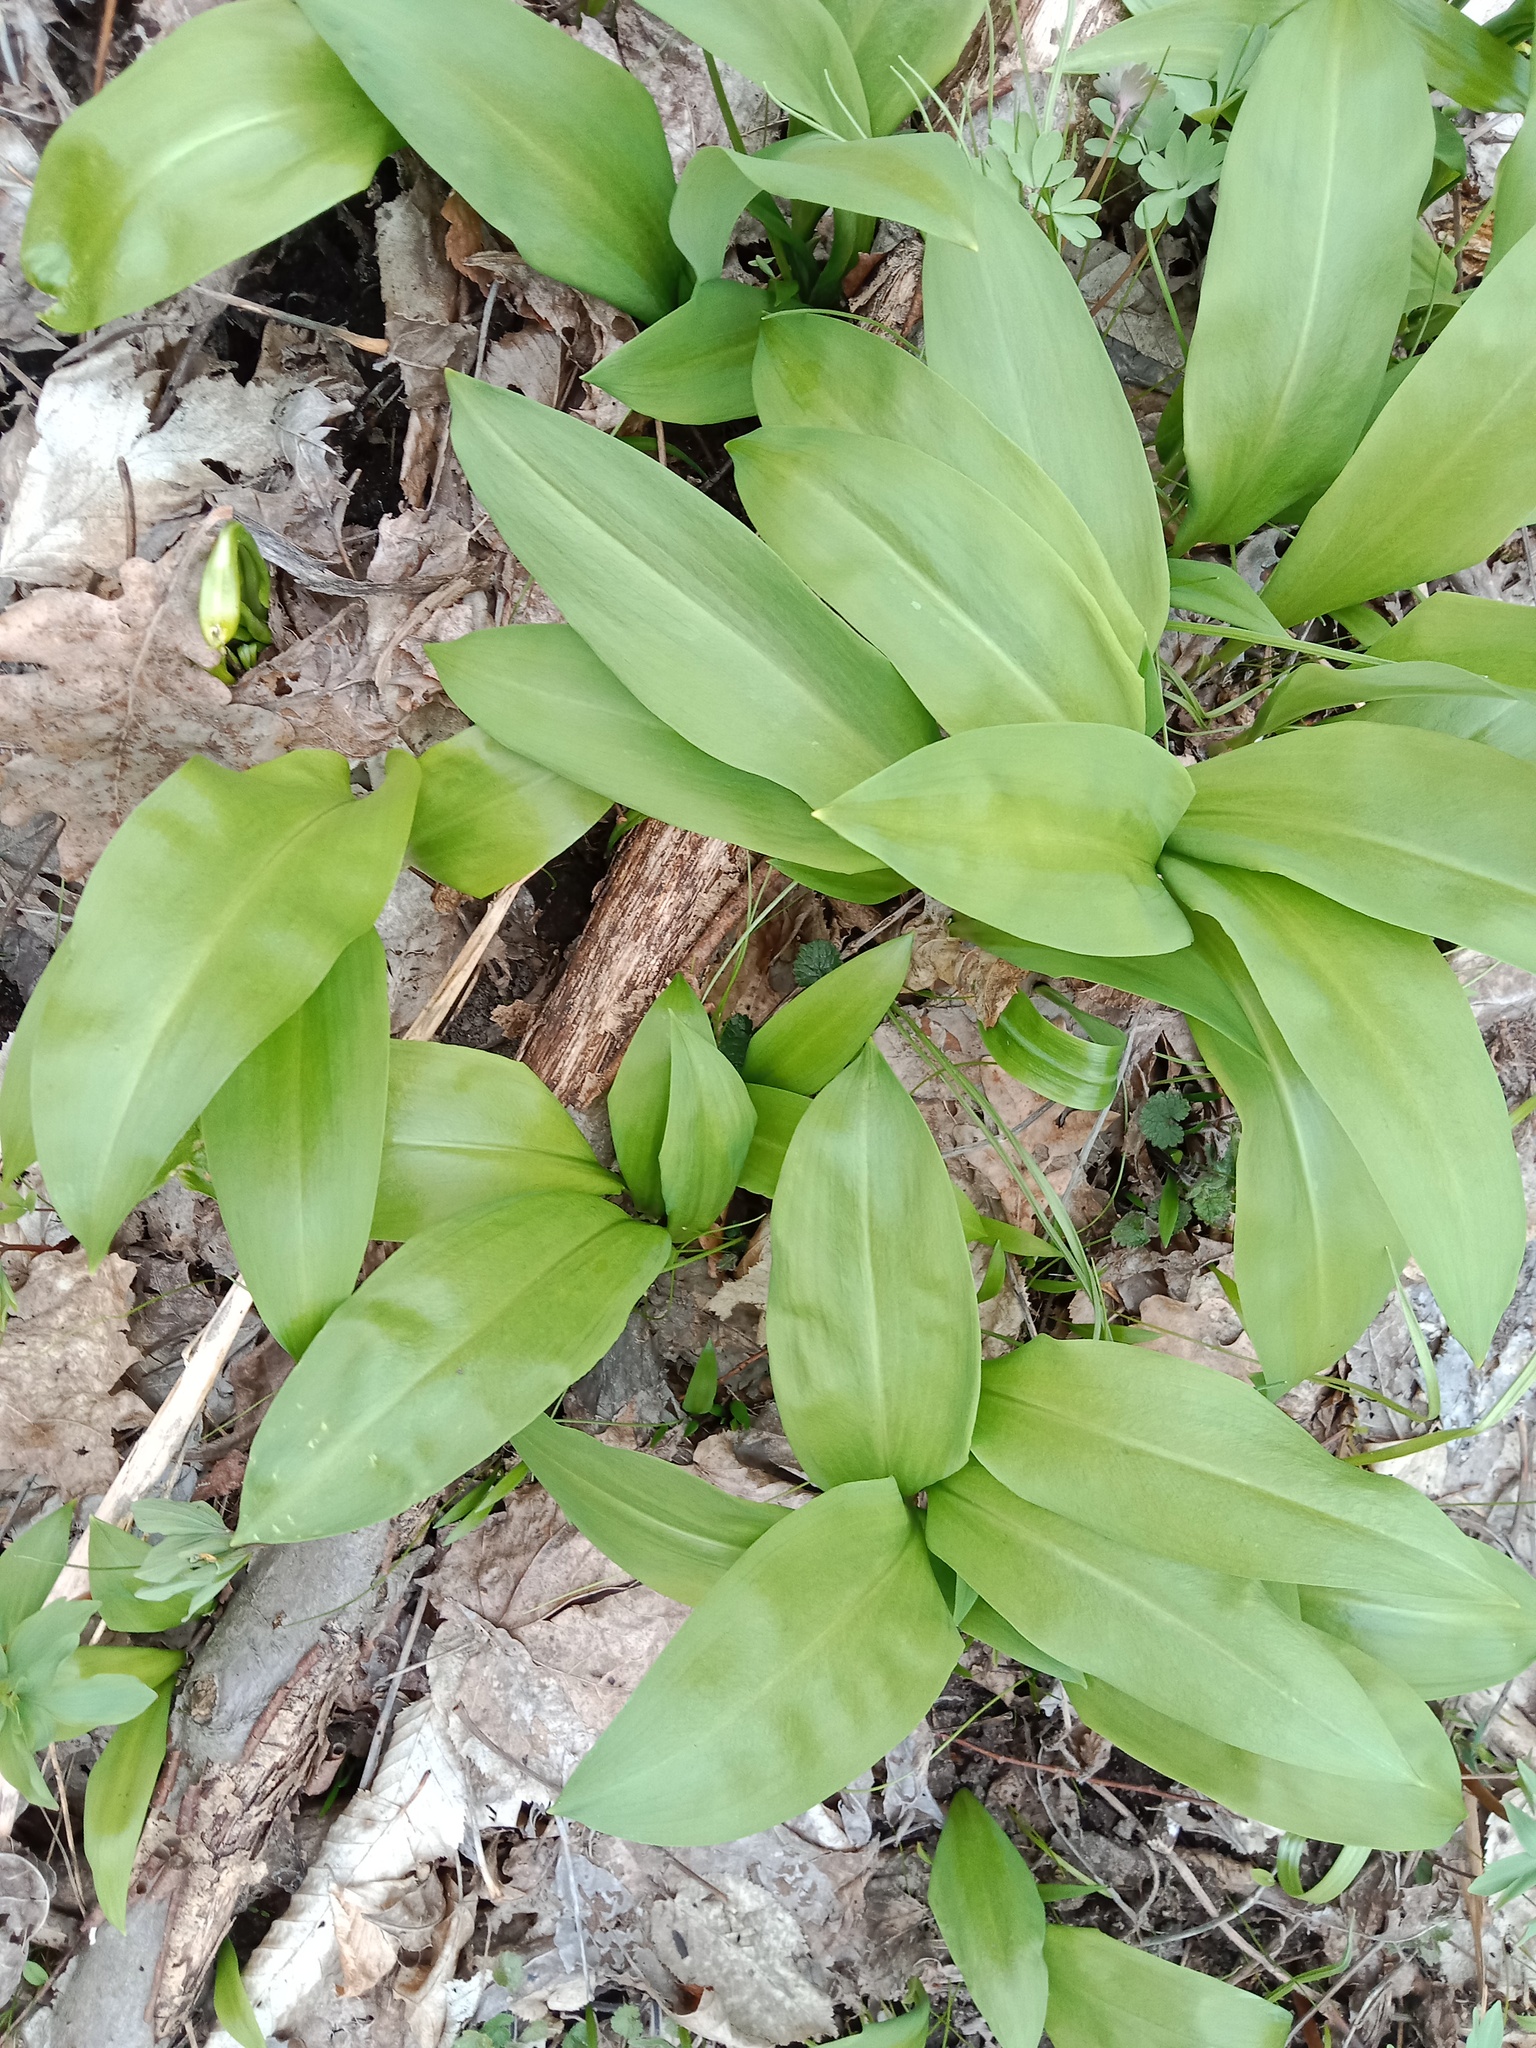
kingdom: Plantae
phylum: Tracheophyta
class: Liliopsida
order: Asparagales
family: Amaryllidaceae
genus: Allium
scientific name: Allium ursinum
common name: Ramsons
